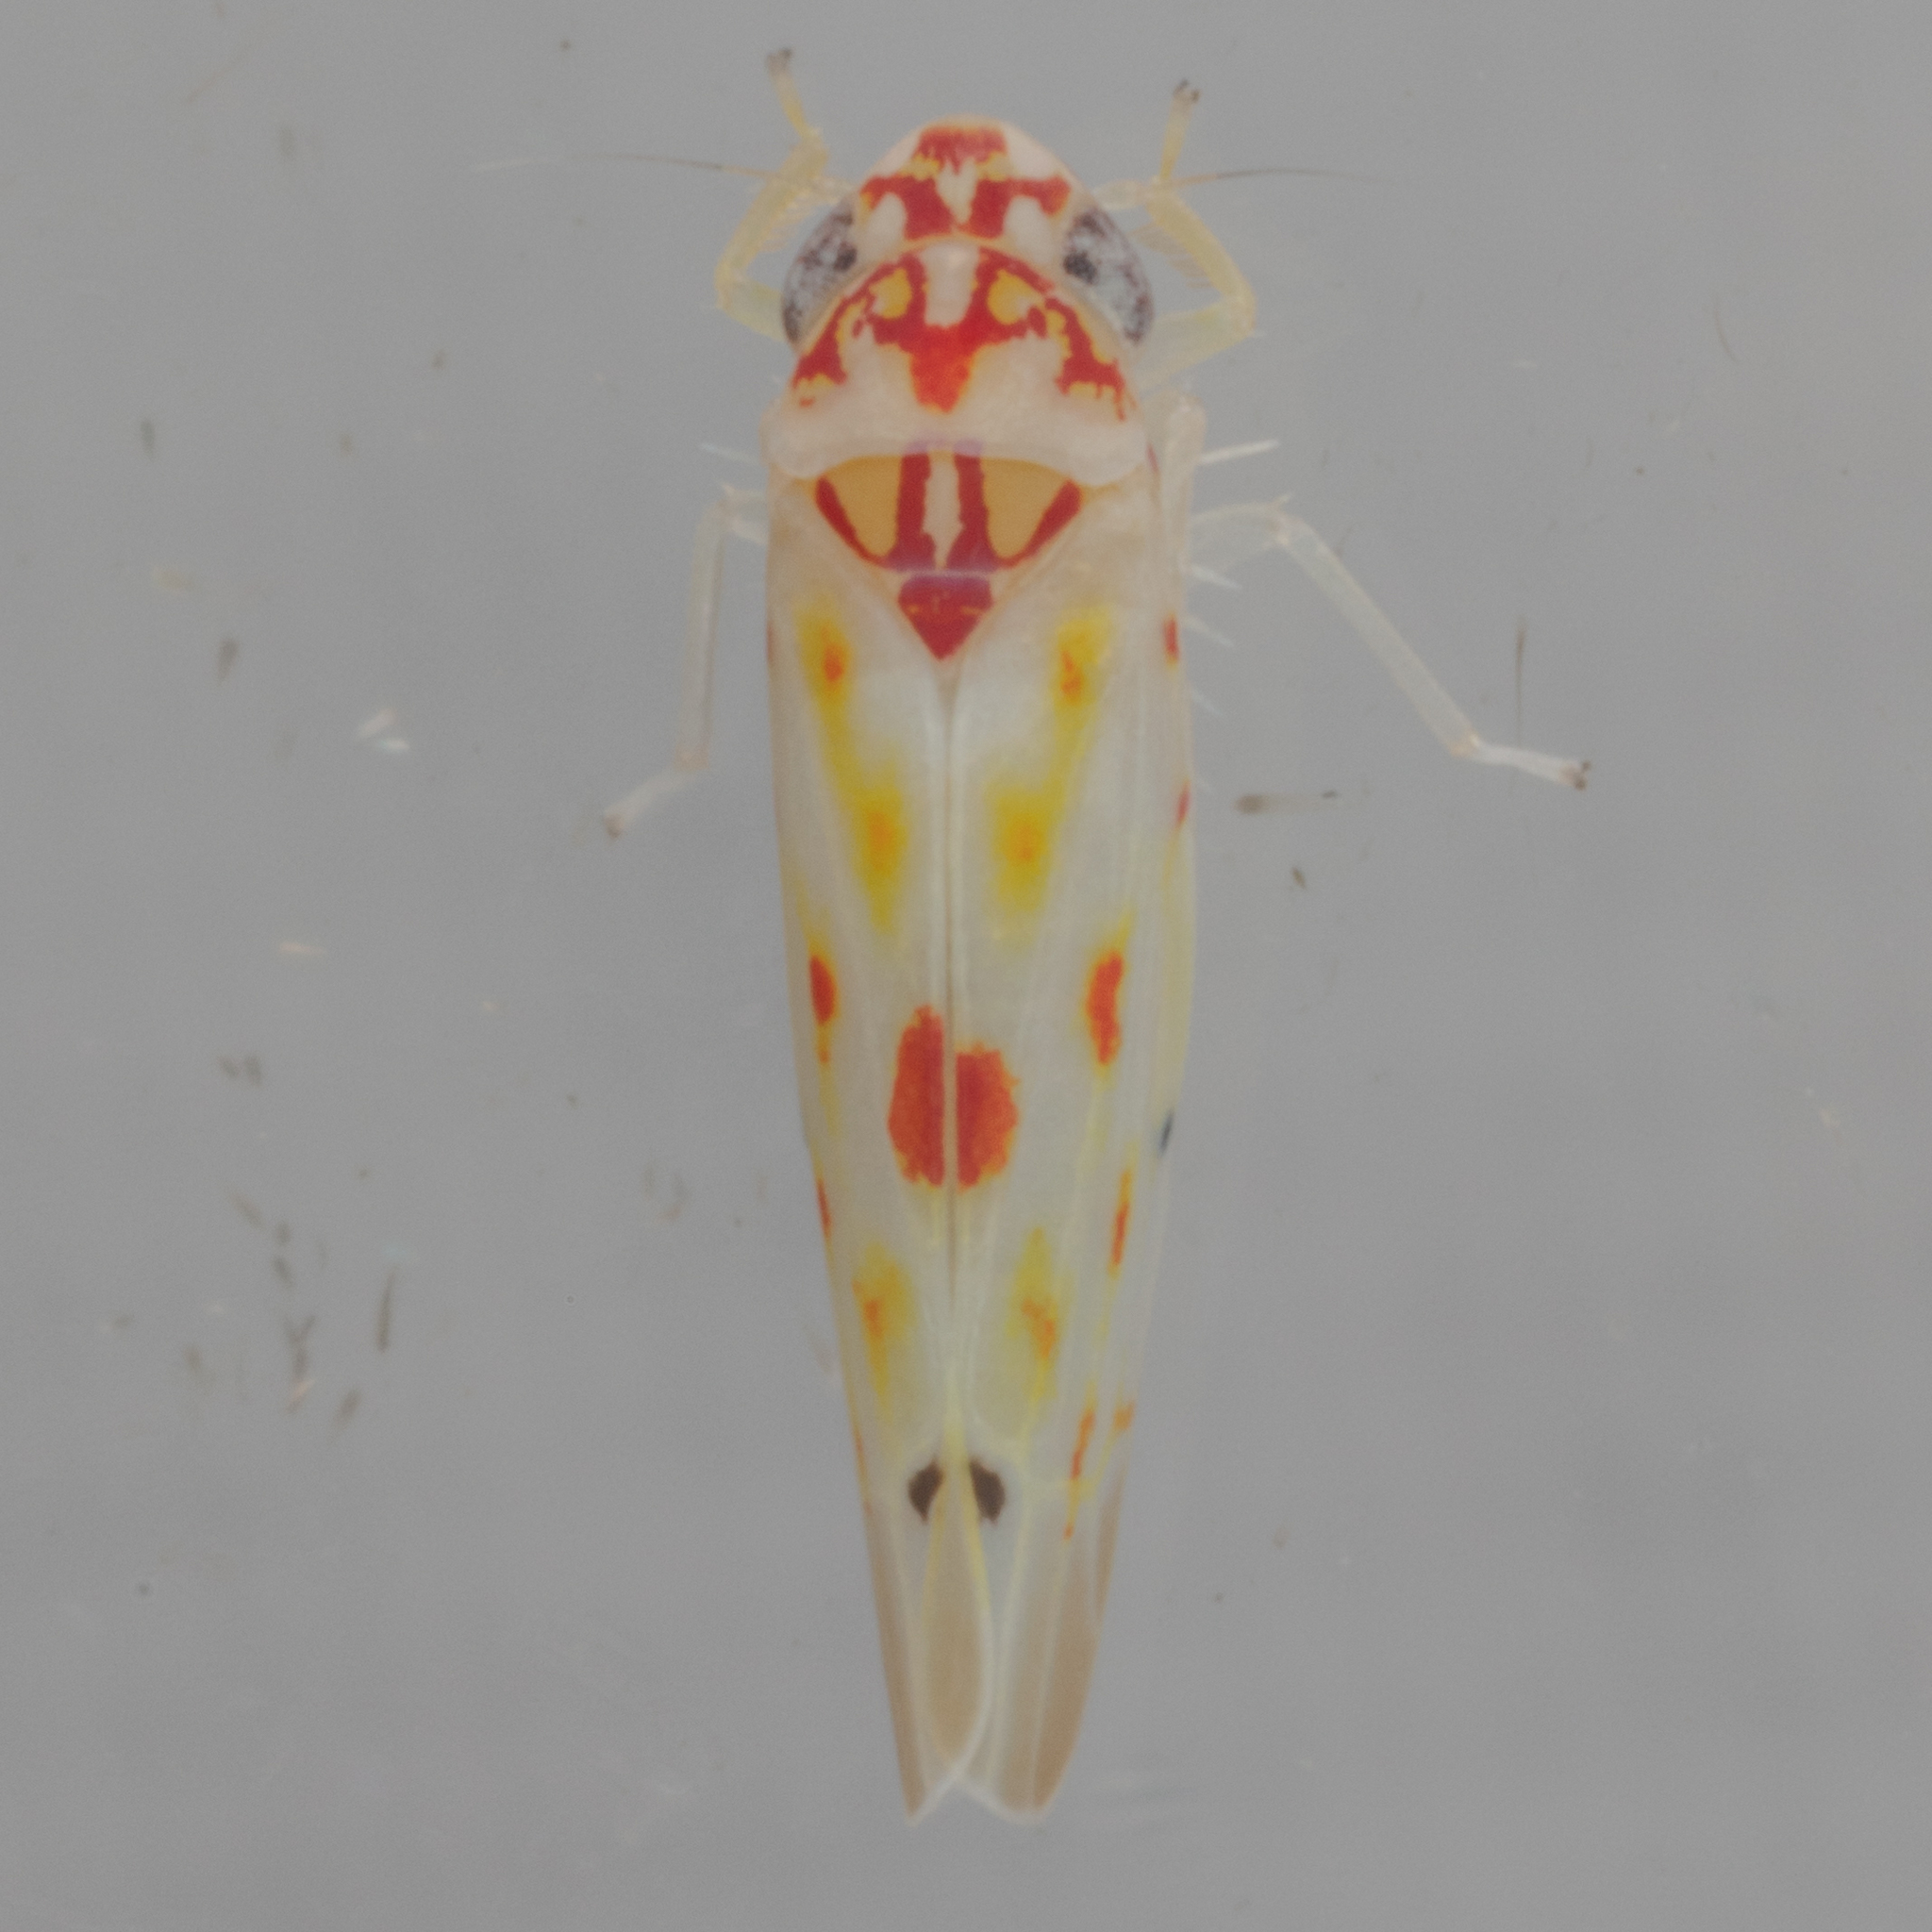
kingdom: Animalia
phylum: Arthropoda
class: Insecta
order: Hemiptera
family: Cicadellidae
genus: Eratoneura
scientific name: Eratoneura hymac
